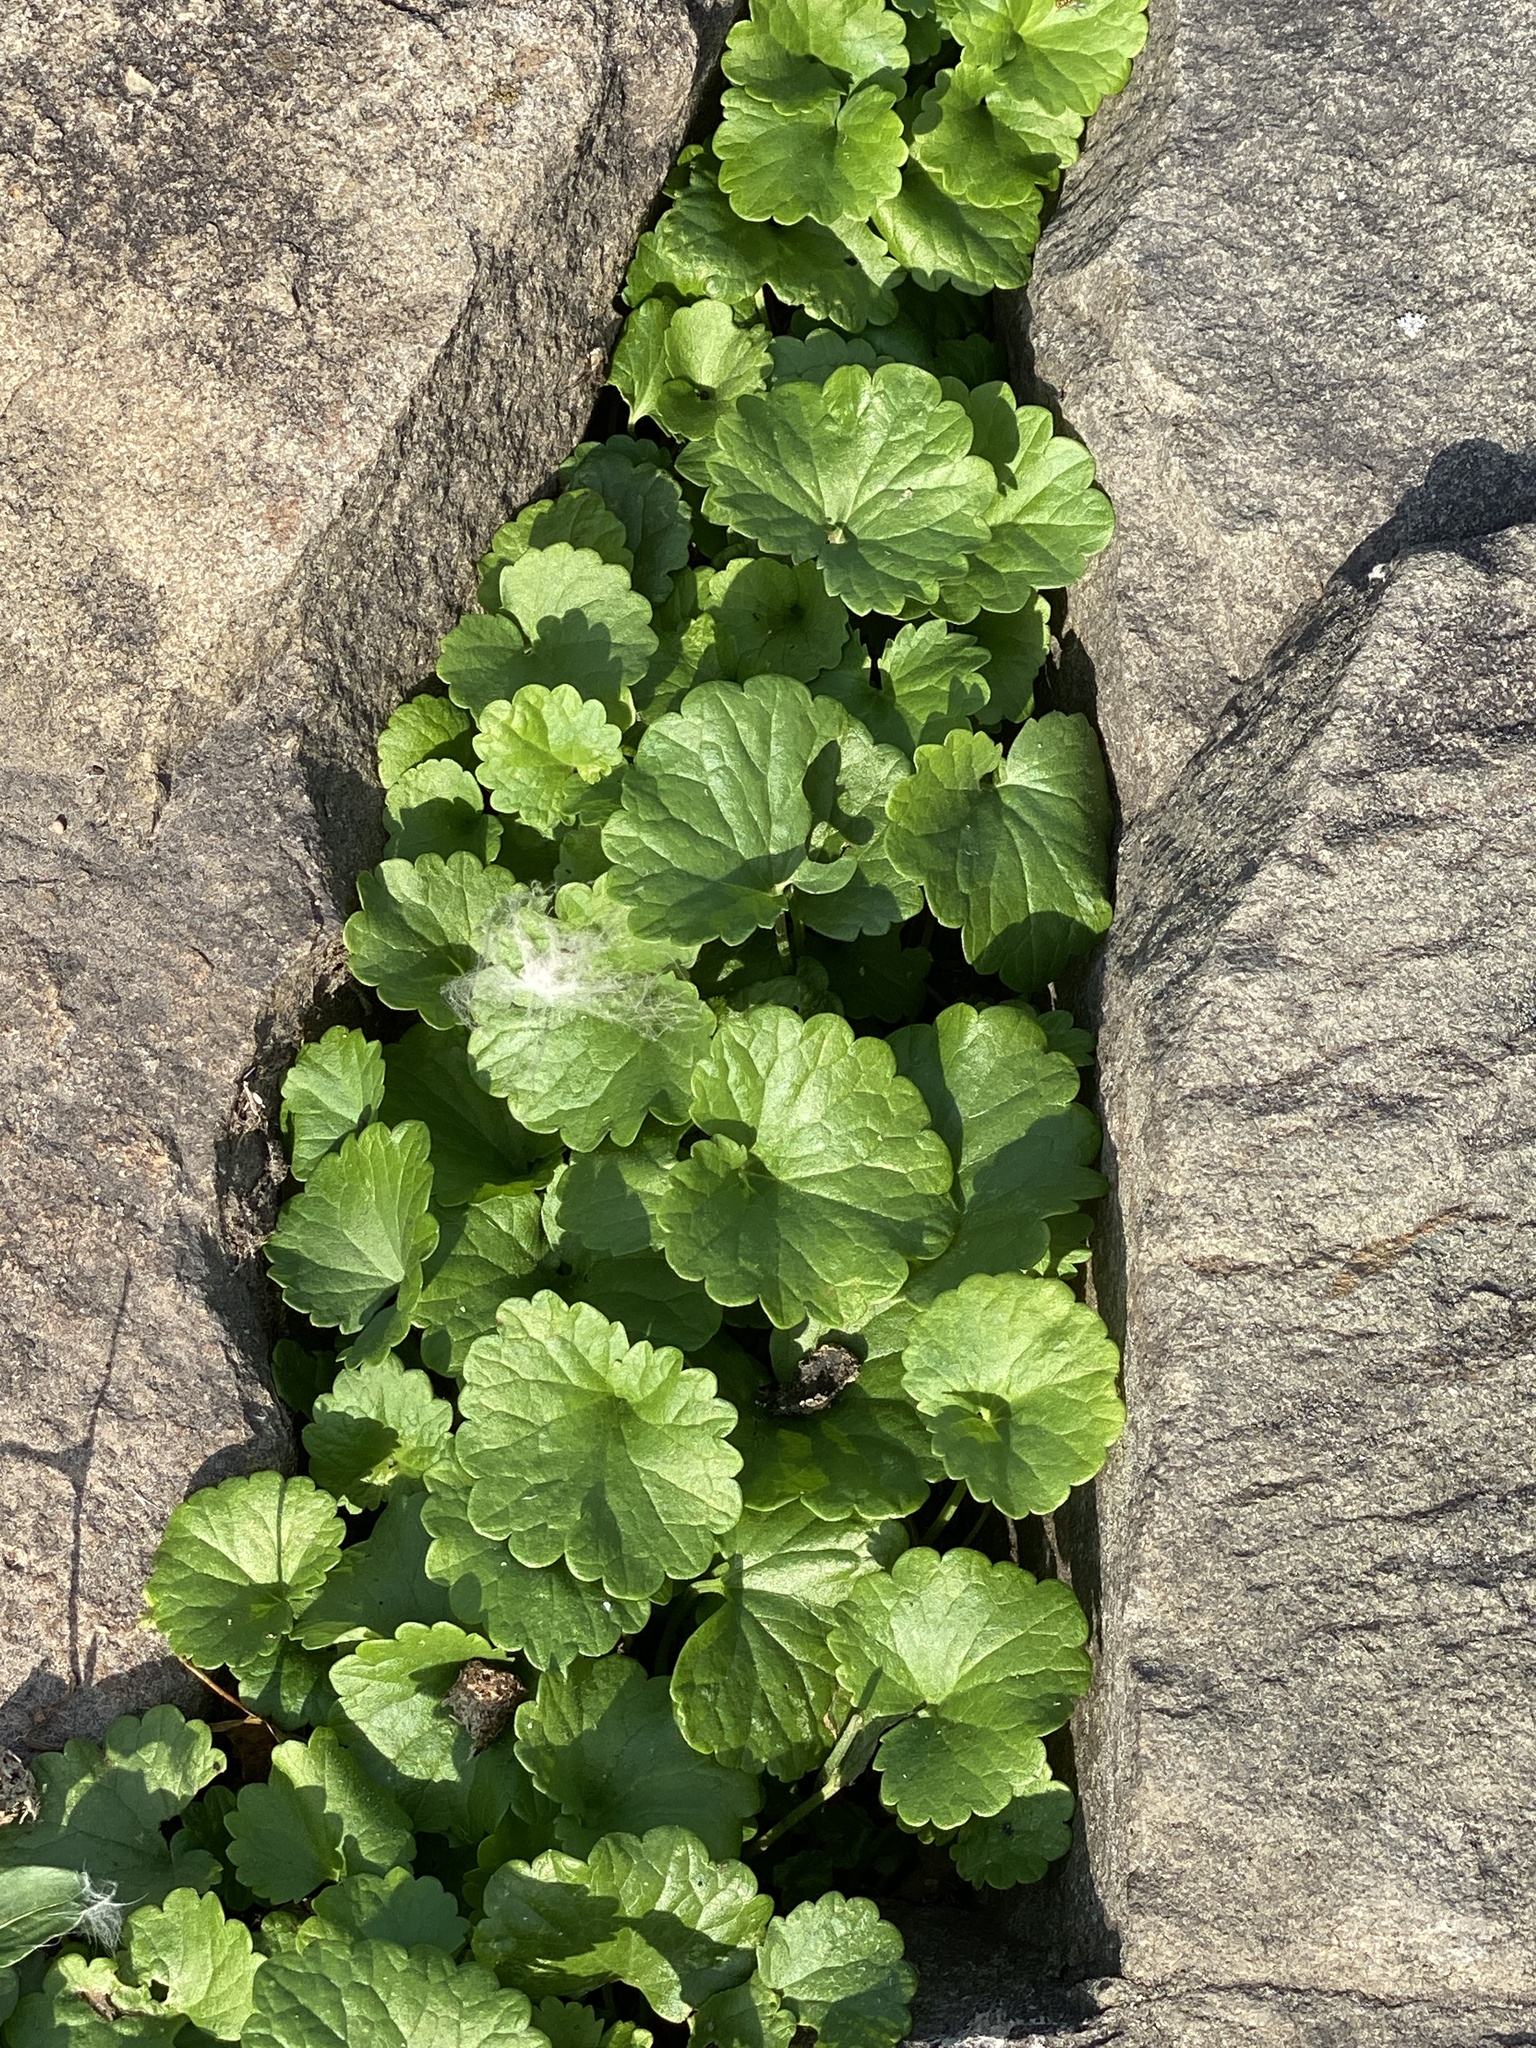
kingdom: Plantae
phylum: Tracheophyta
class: Magnoliopsida
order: Lamiales
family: Lamiaceae
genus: Glechoma
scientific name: Glechoma hederacea
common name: Ground ivy
